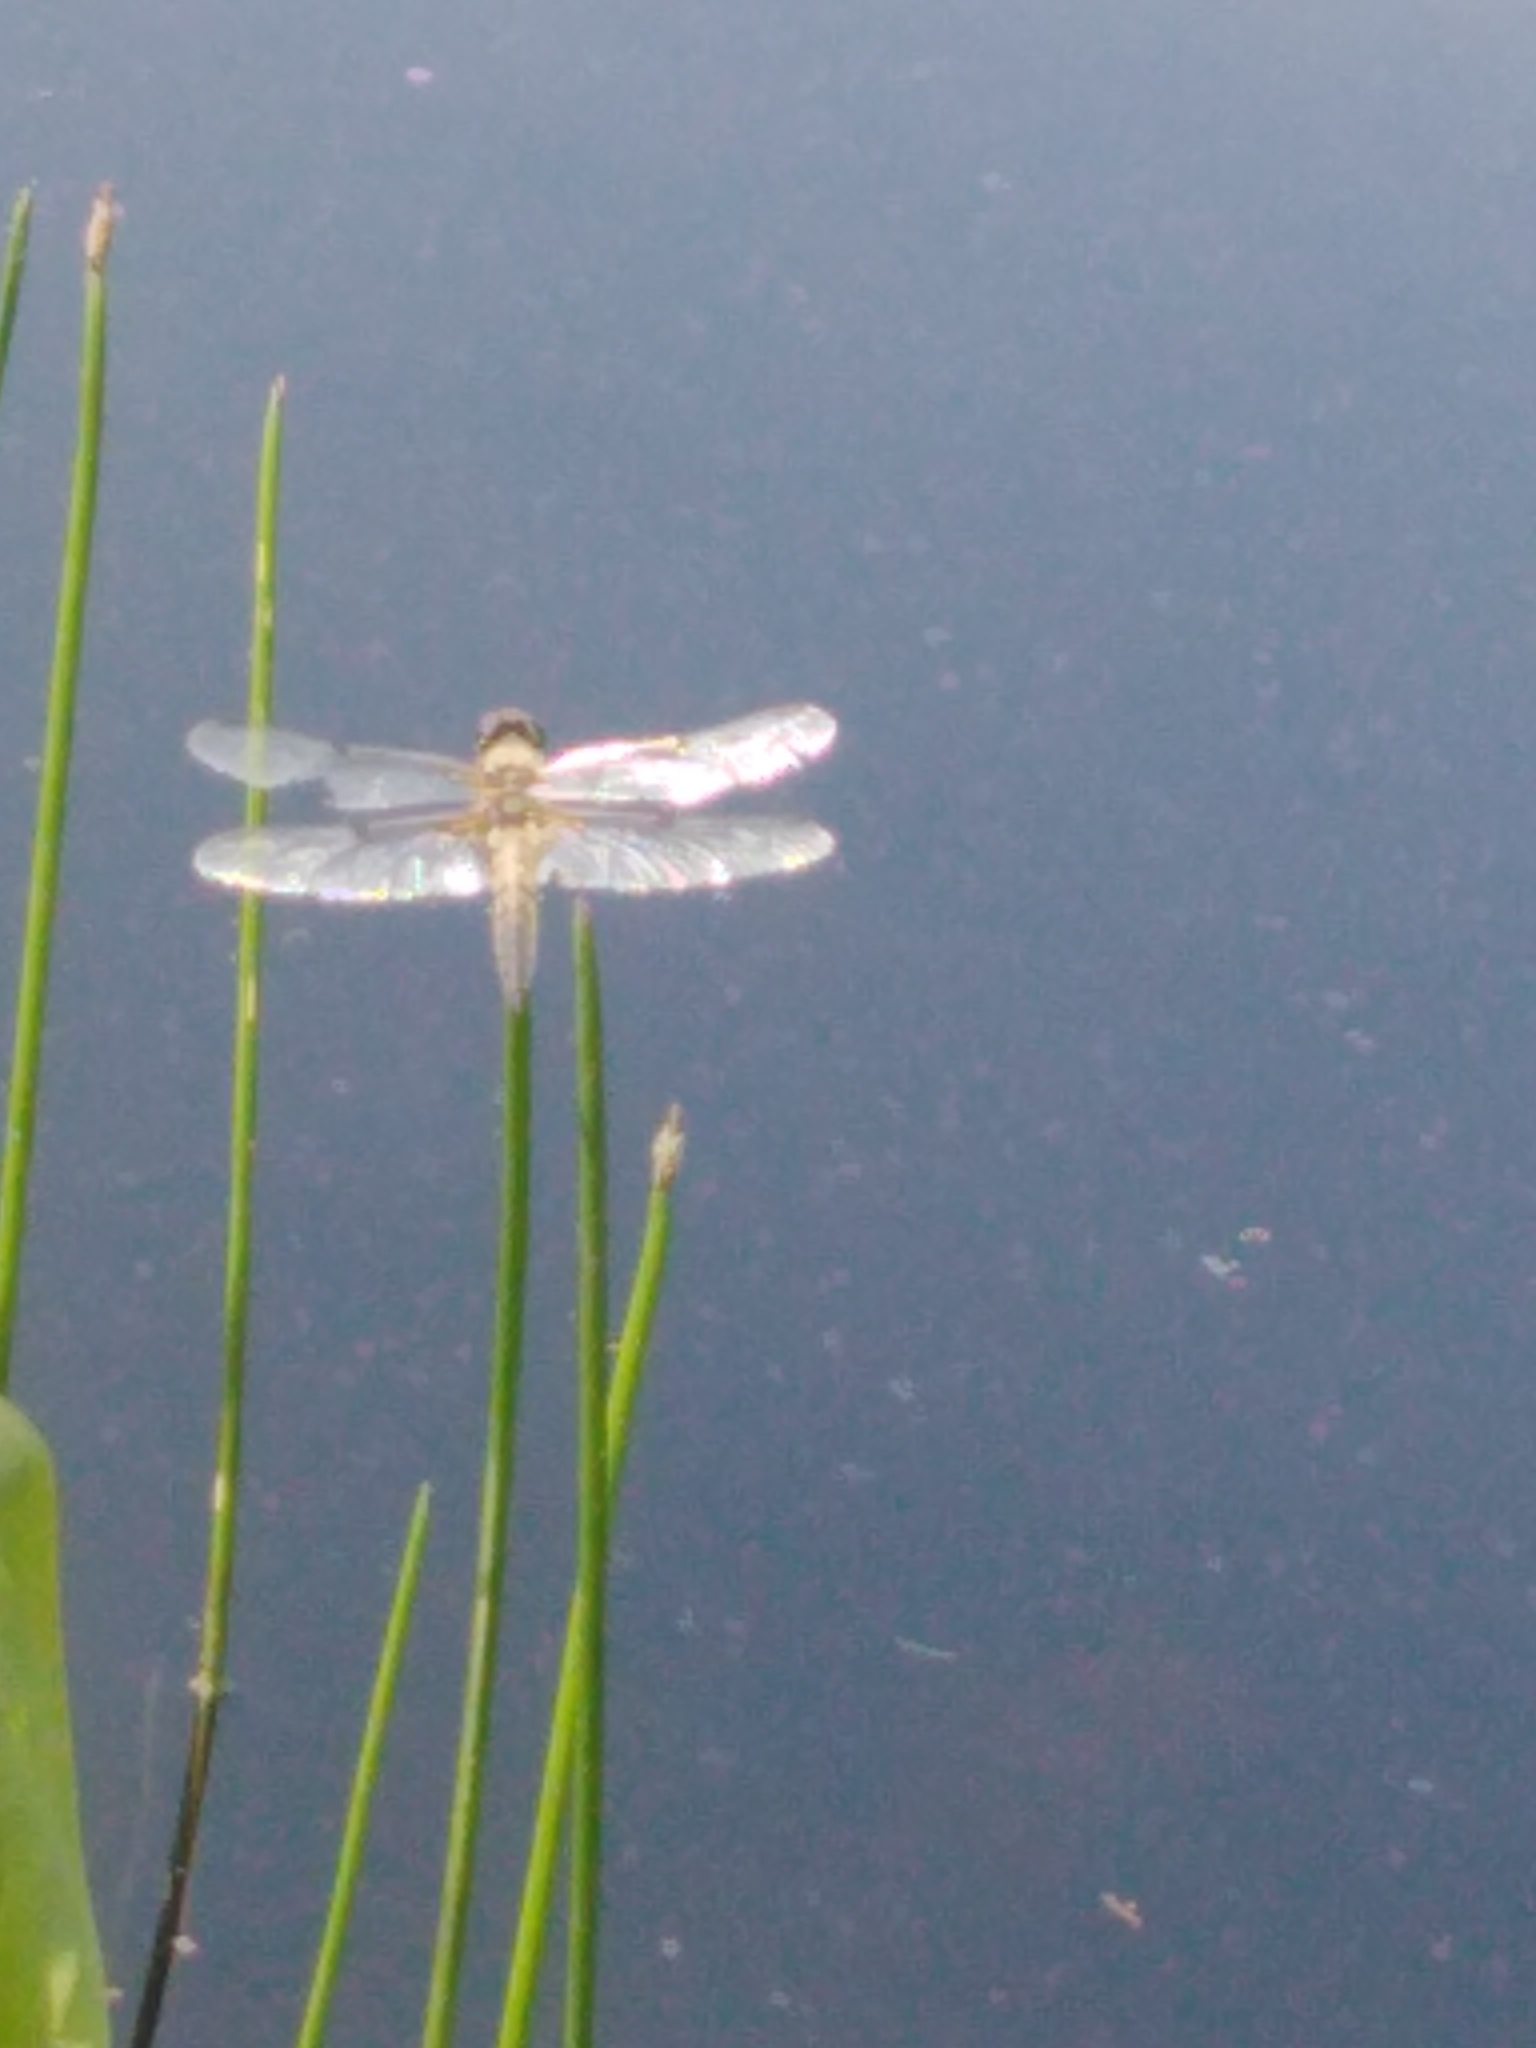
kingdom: Animalia
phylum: Arthropoda
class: Insecta
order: Odonata
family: Libellulidae
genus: Libellula
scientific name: Libellula quadrimaculata
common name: Four-spotted chaser
